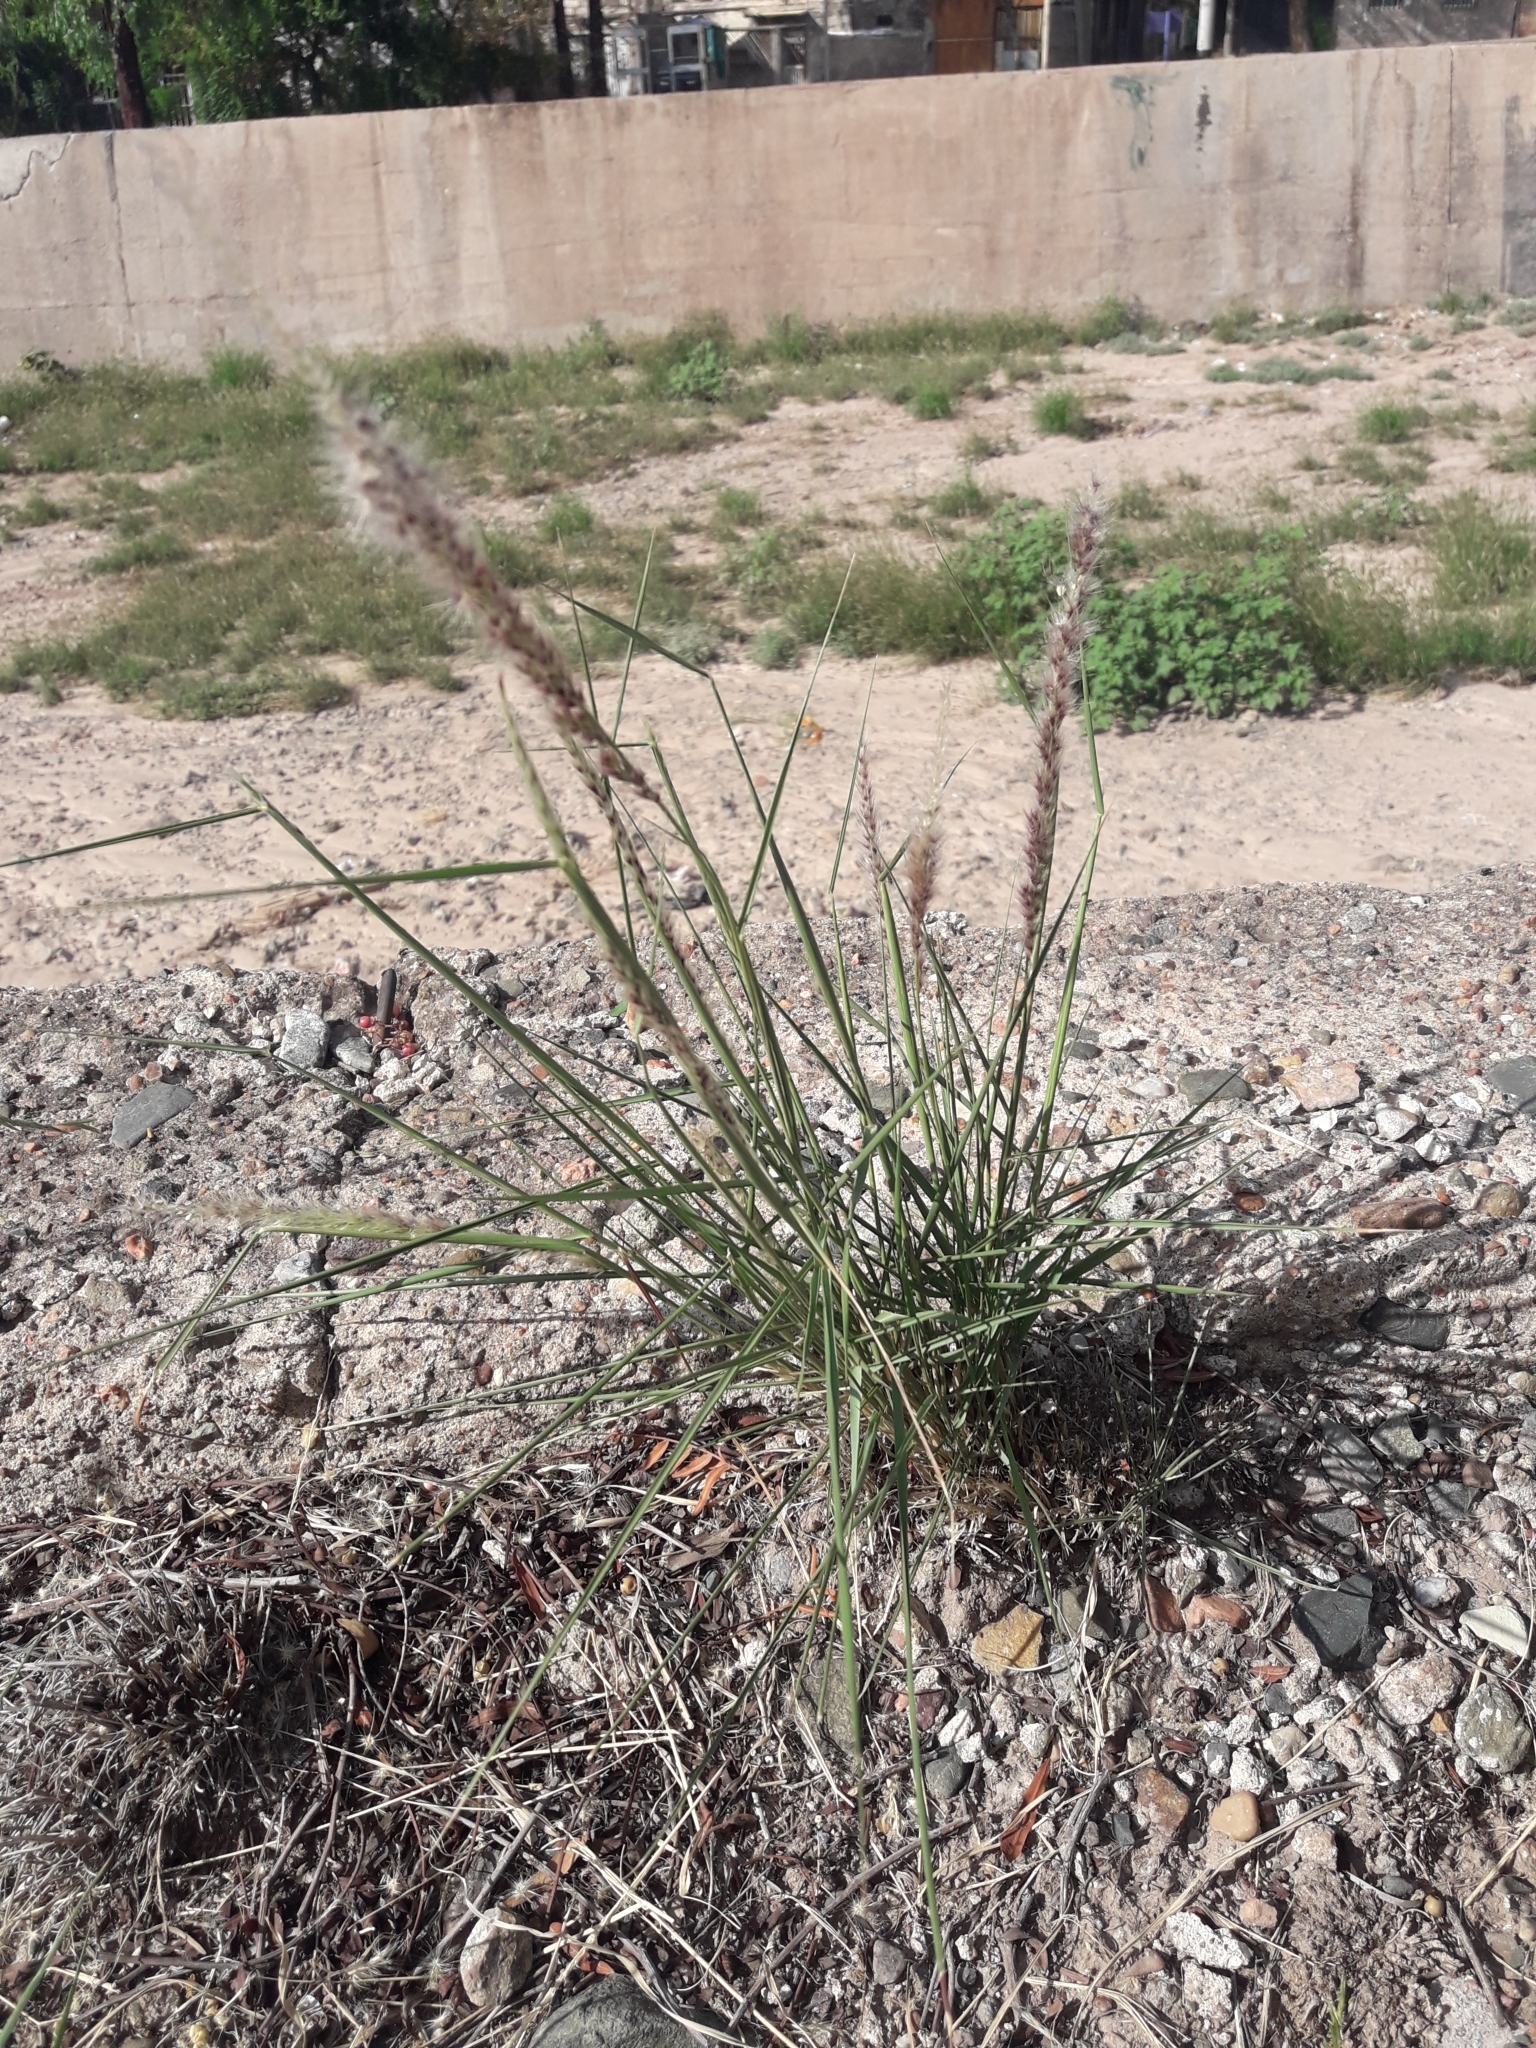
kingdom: Plantae
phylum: Tracheophyta
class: Liliopsida
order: Poales
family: Poaceae
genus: Pappophorum
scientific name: Pappophorum caespitosum
